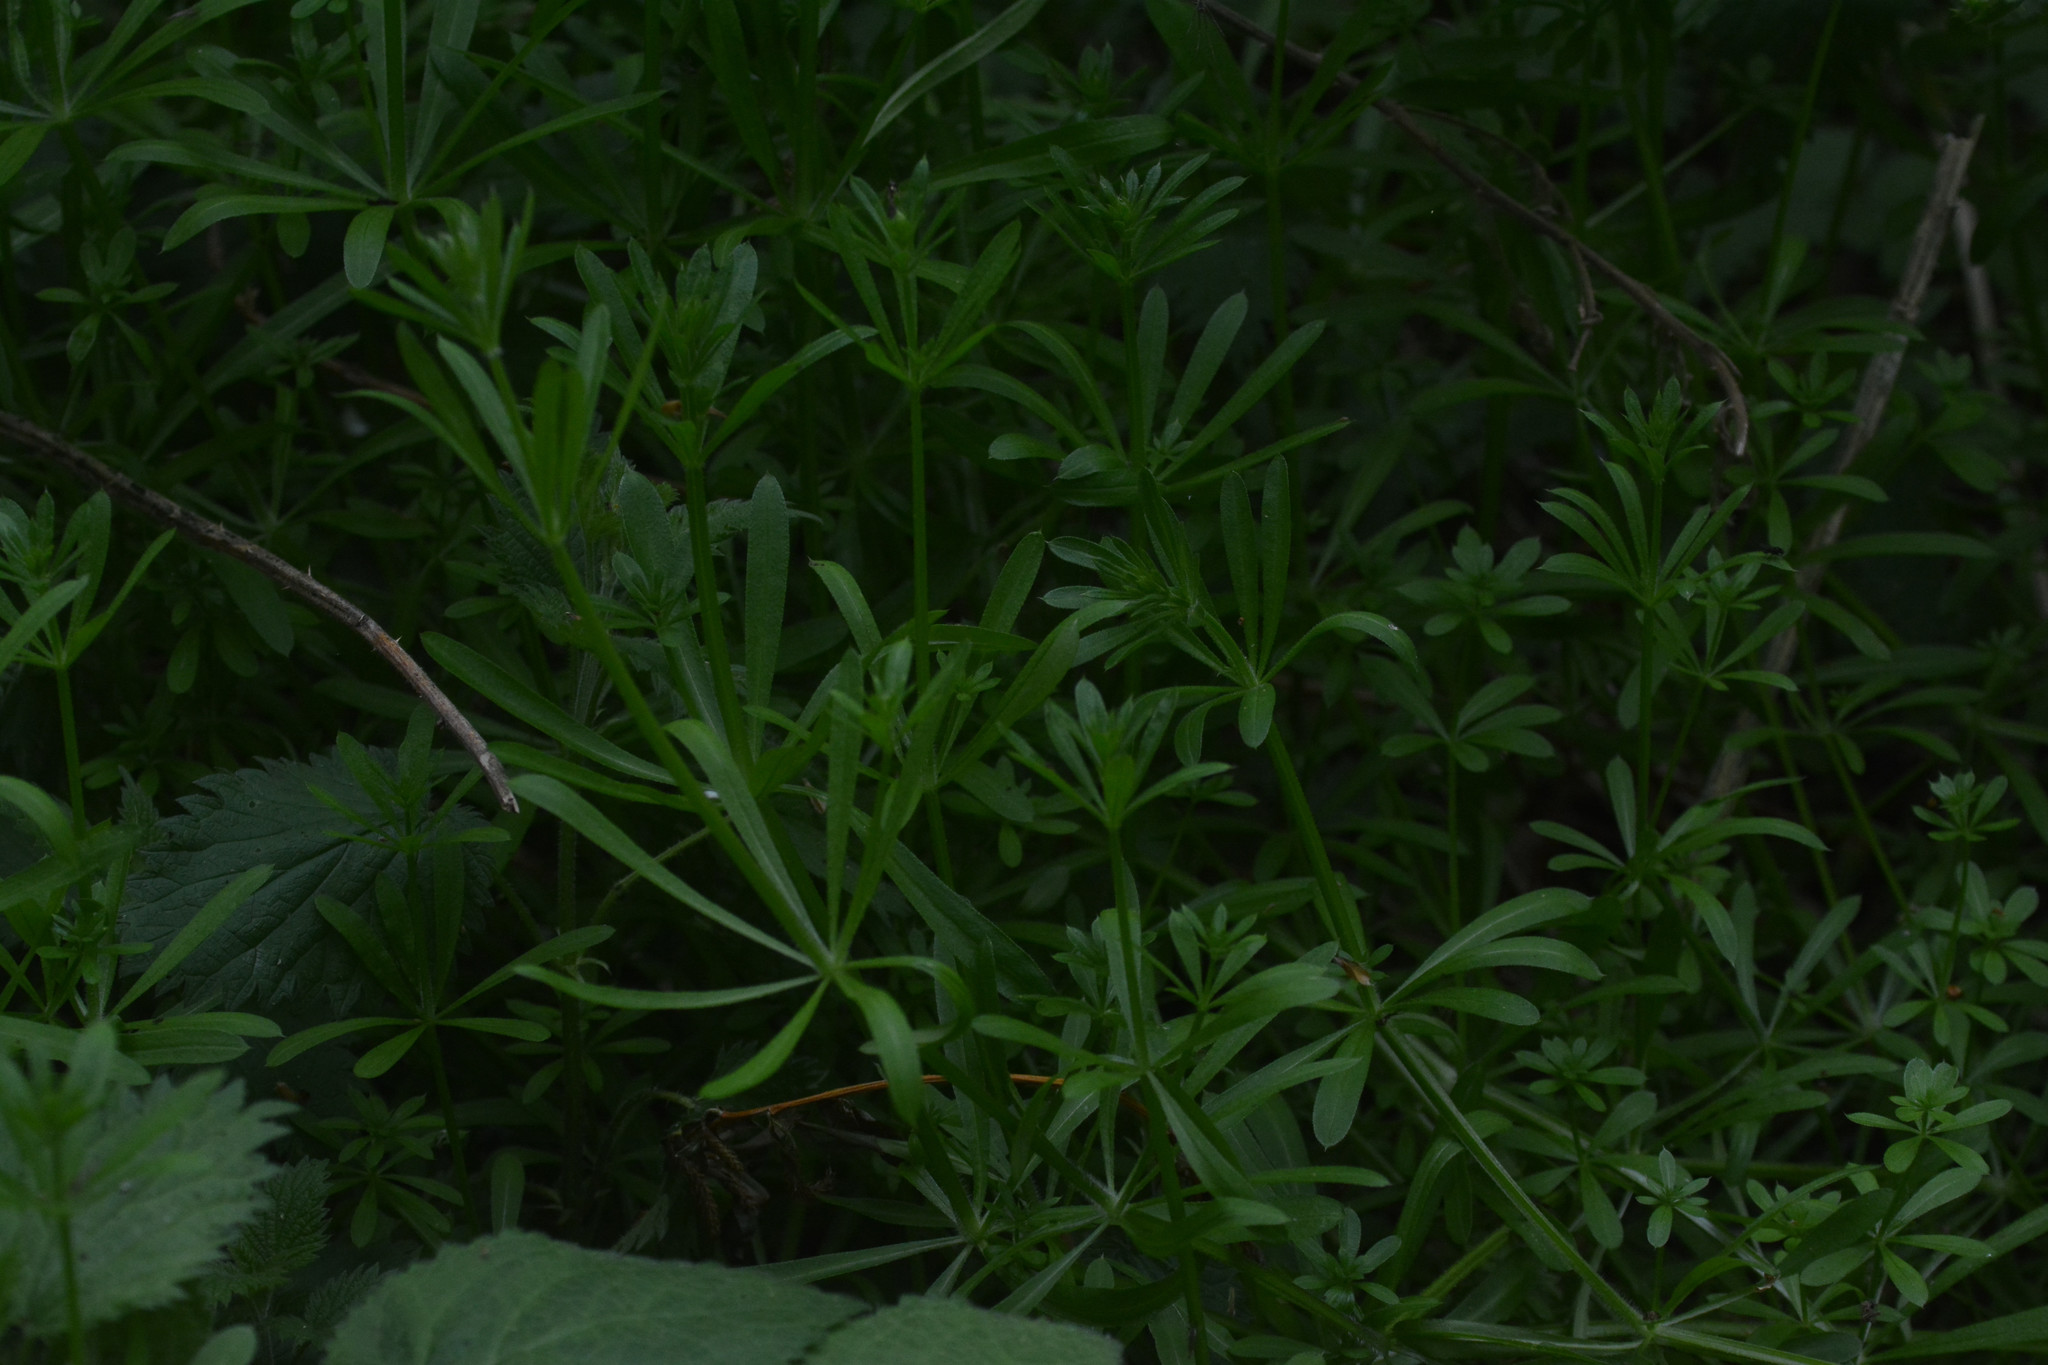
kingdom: Plantae
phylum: Tracheophyta
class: Magnoliopsida
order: Gentianales
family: Rubiaceae
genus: Galium
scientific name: Galium aparine
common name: Cleavers
